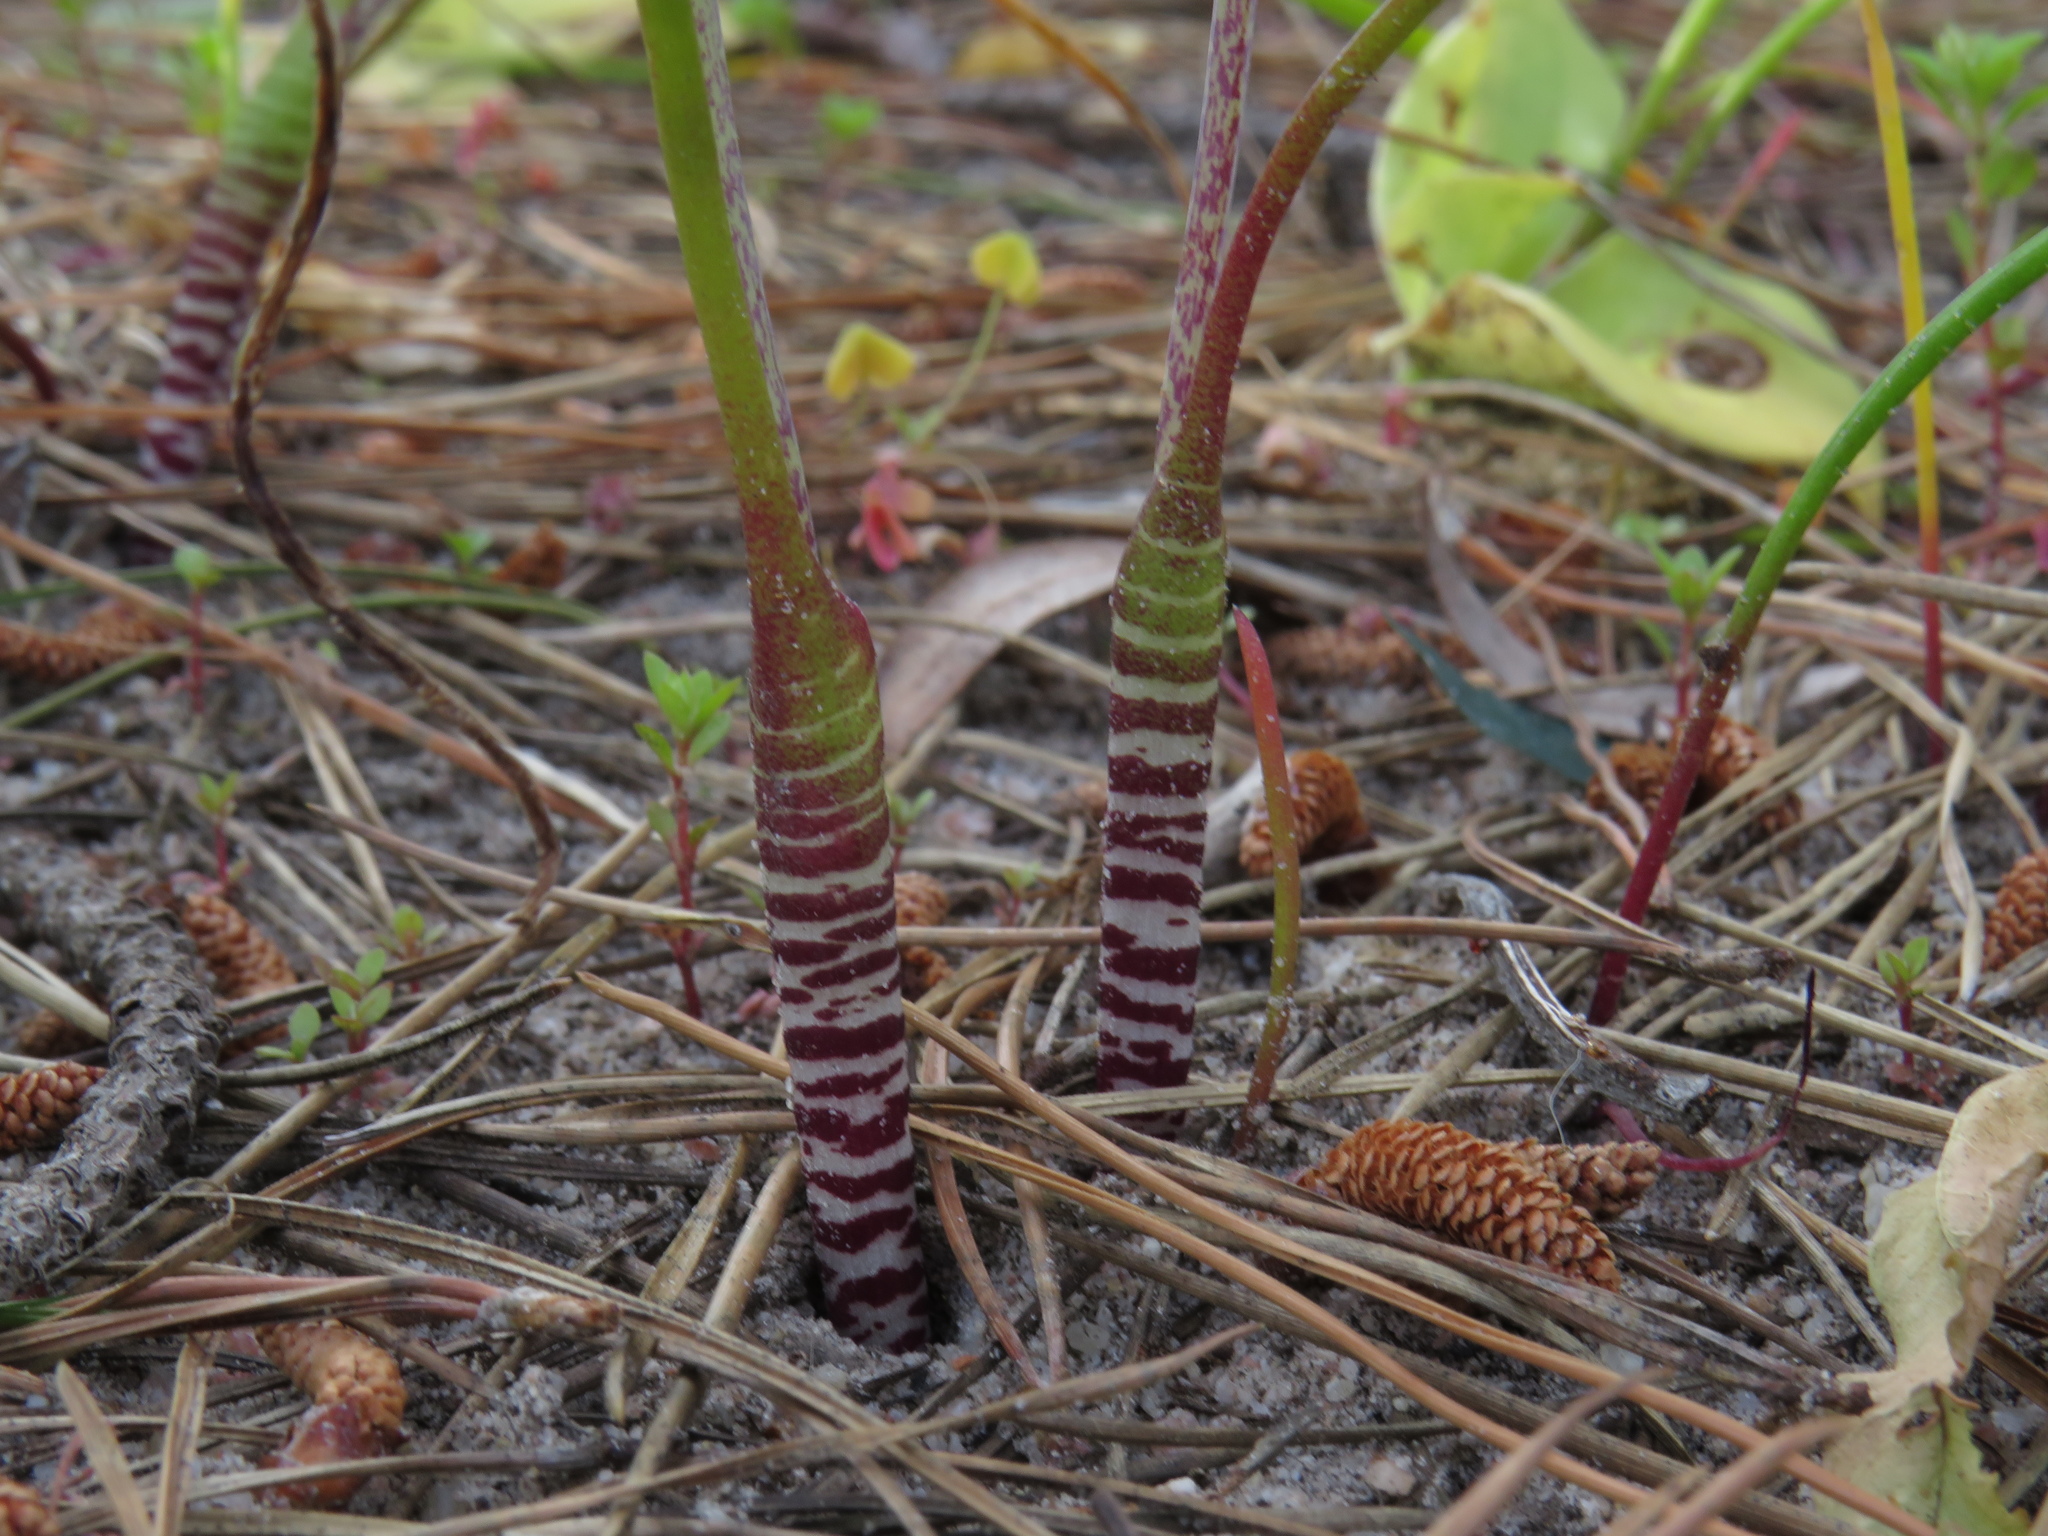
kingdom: Plantae
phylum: Tracheophyta
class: Liliopsida
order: Asparagales
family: Asparagaceae
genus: Lachenalia
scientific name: Lachenalia unifolia
